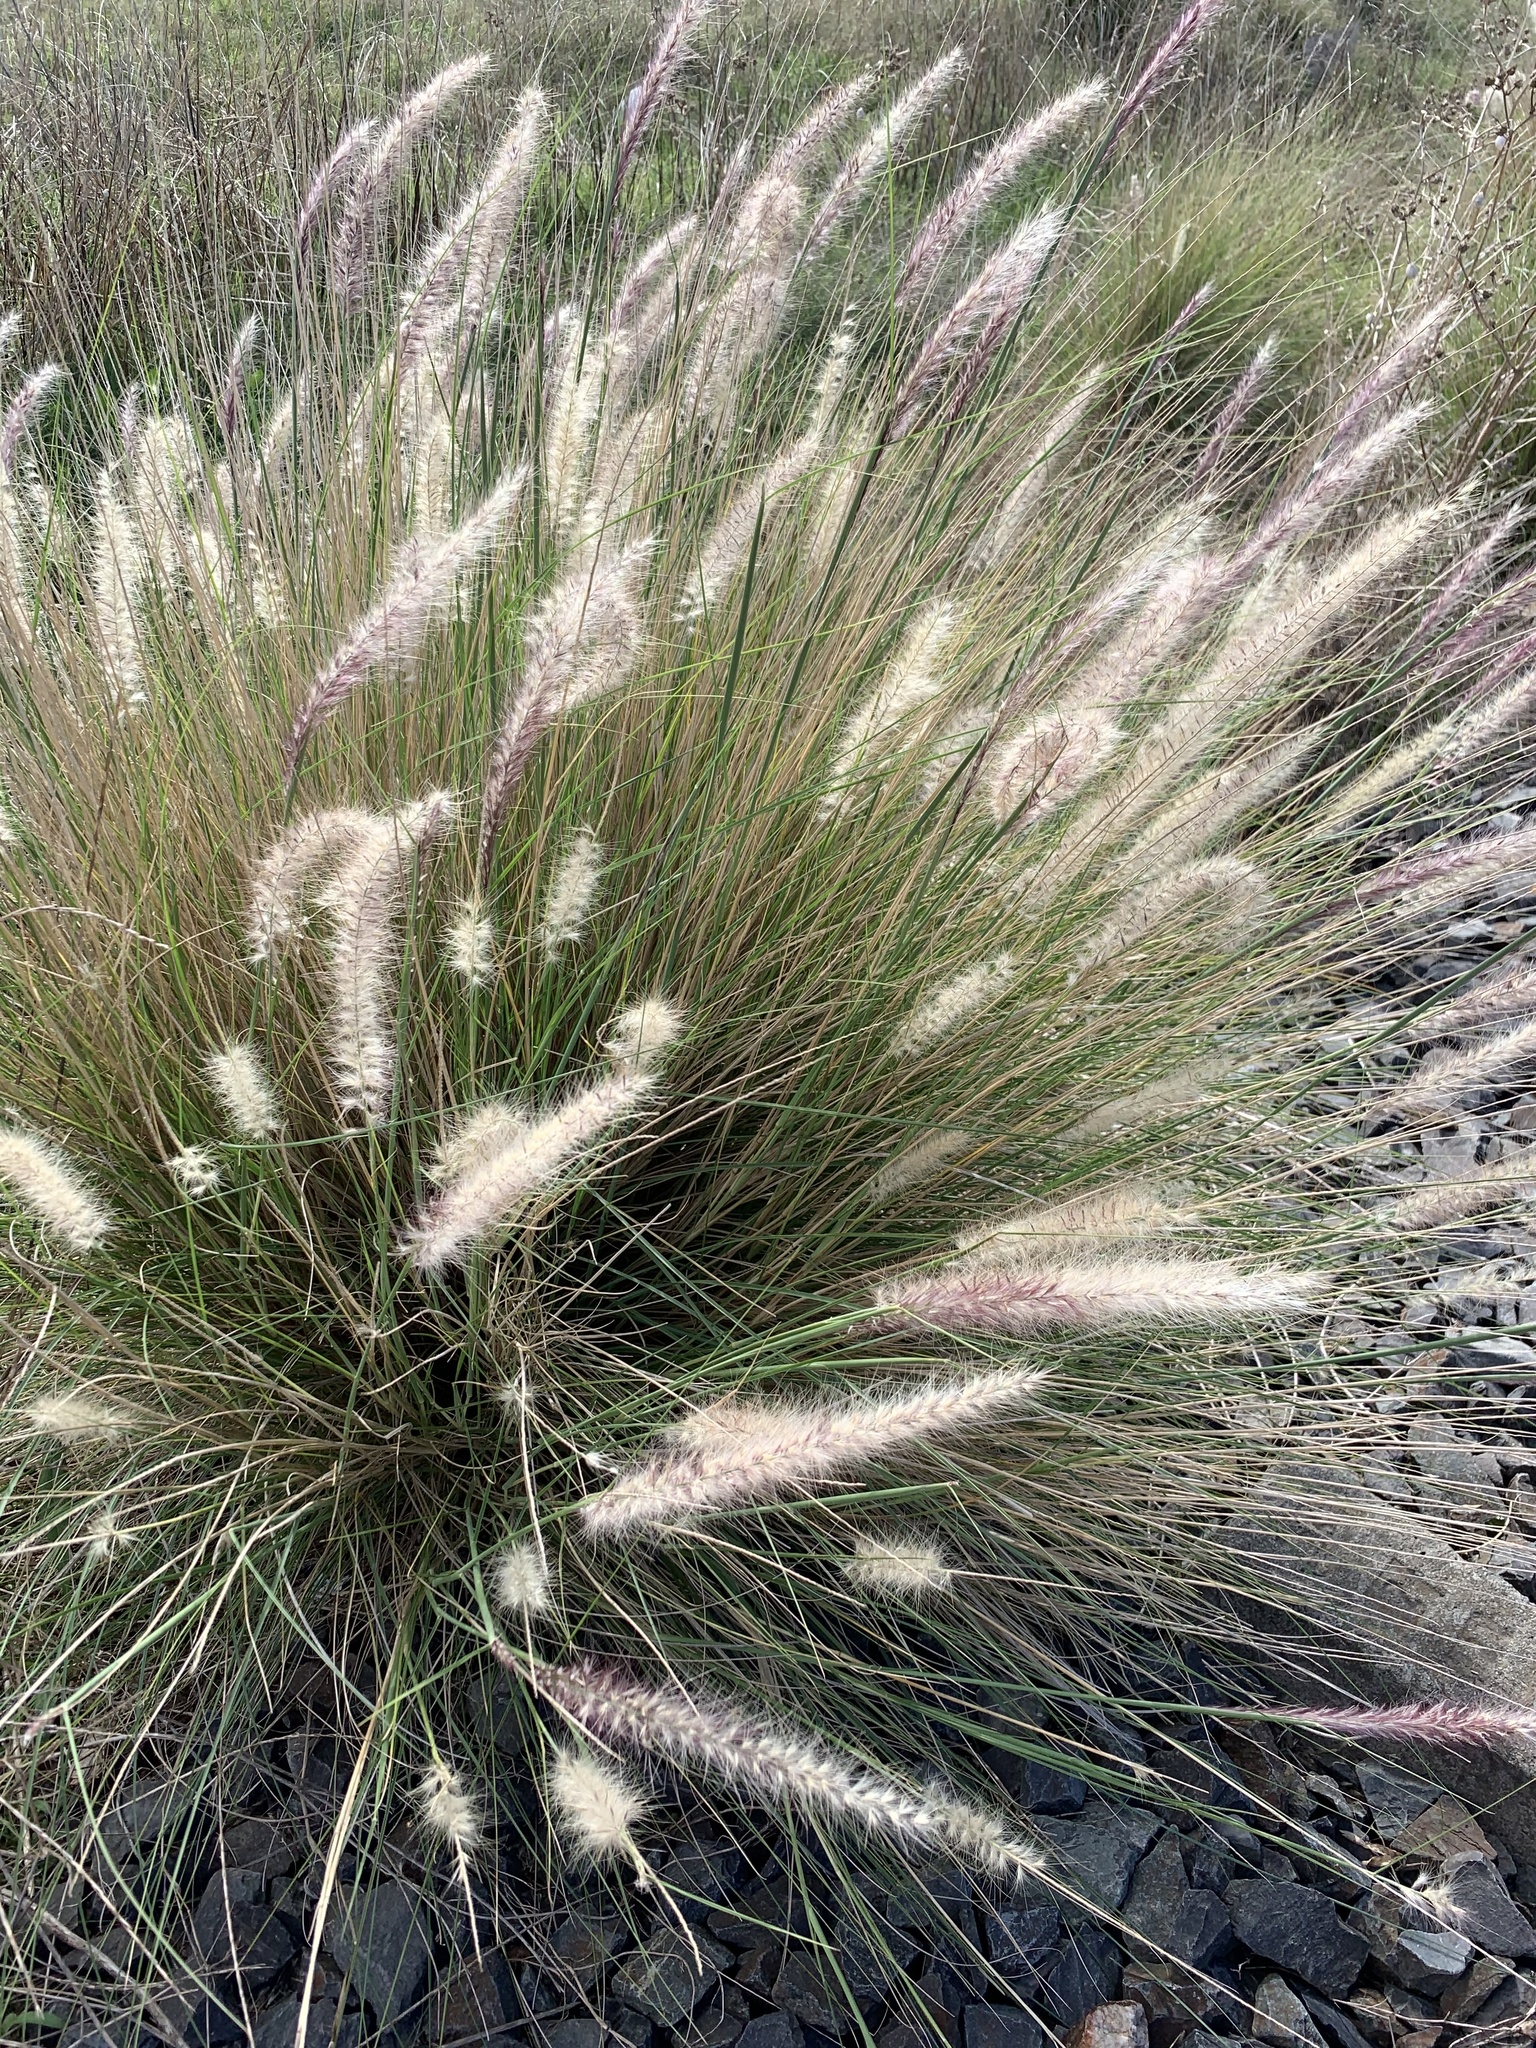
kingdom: Plantae
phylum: Tracheophyta
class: Liliopsida
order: Poales
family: Poaceae
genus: Cenchrus
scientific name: Cenchrus setaceus
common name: Crimson fountaingrass
